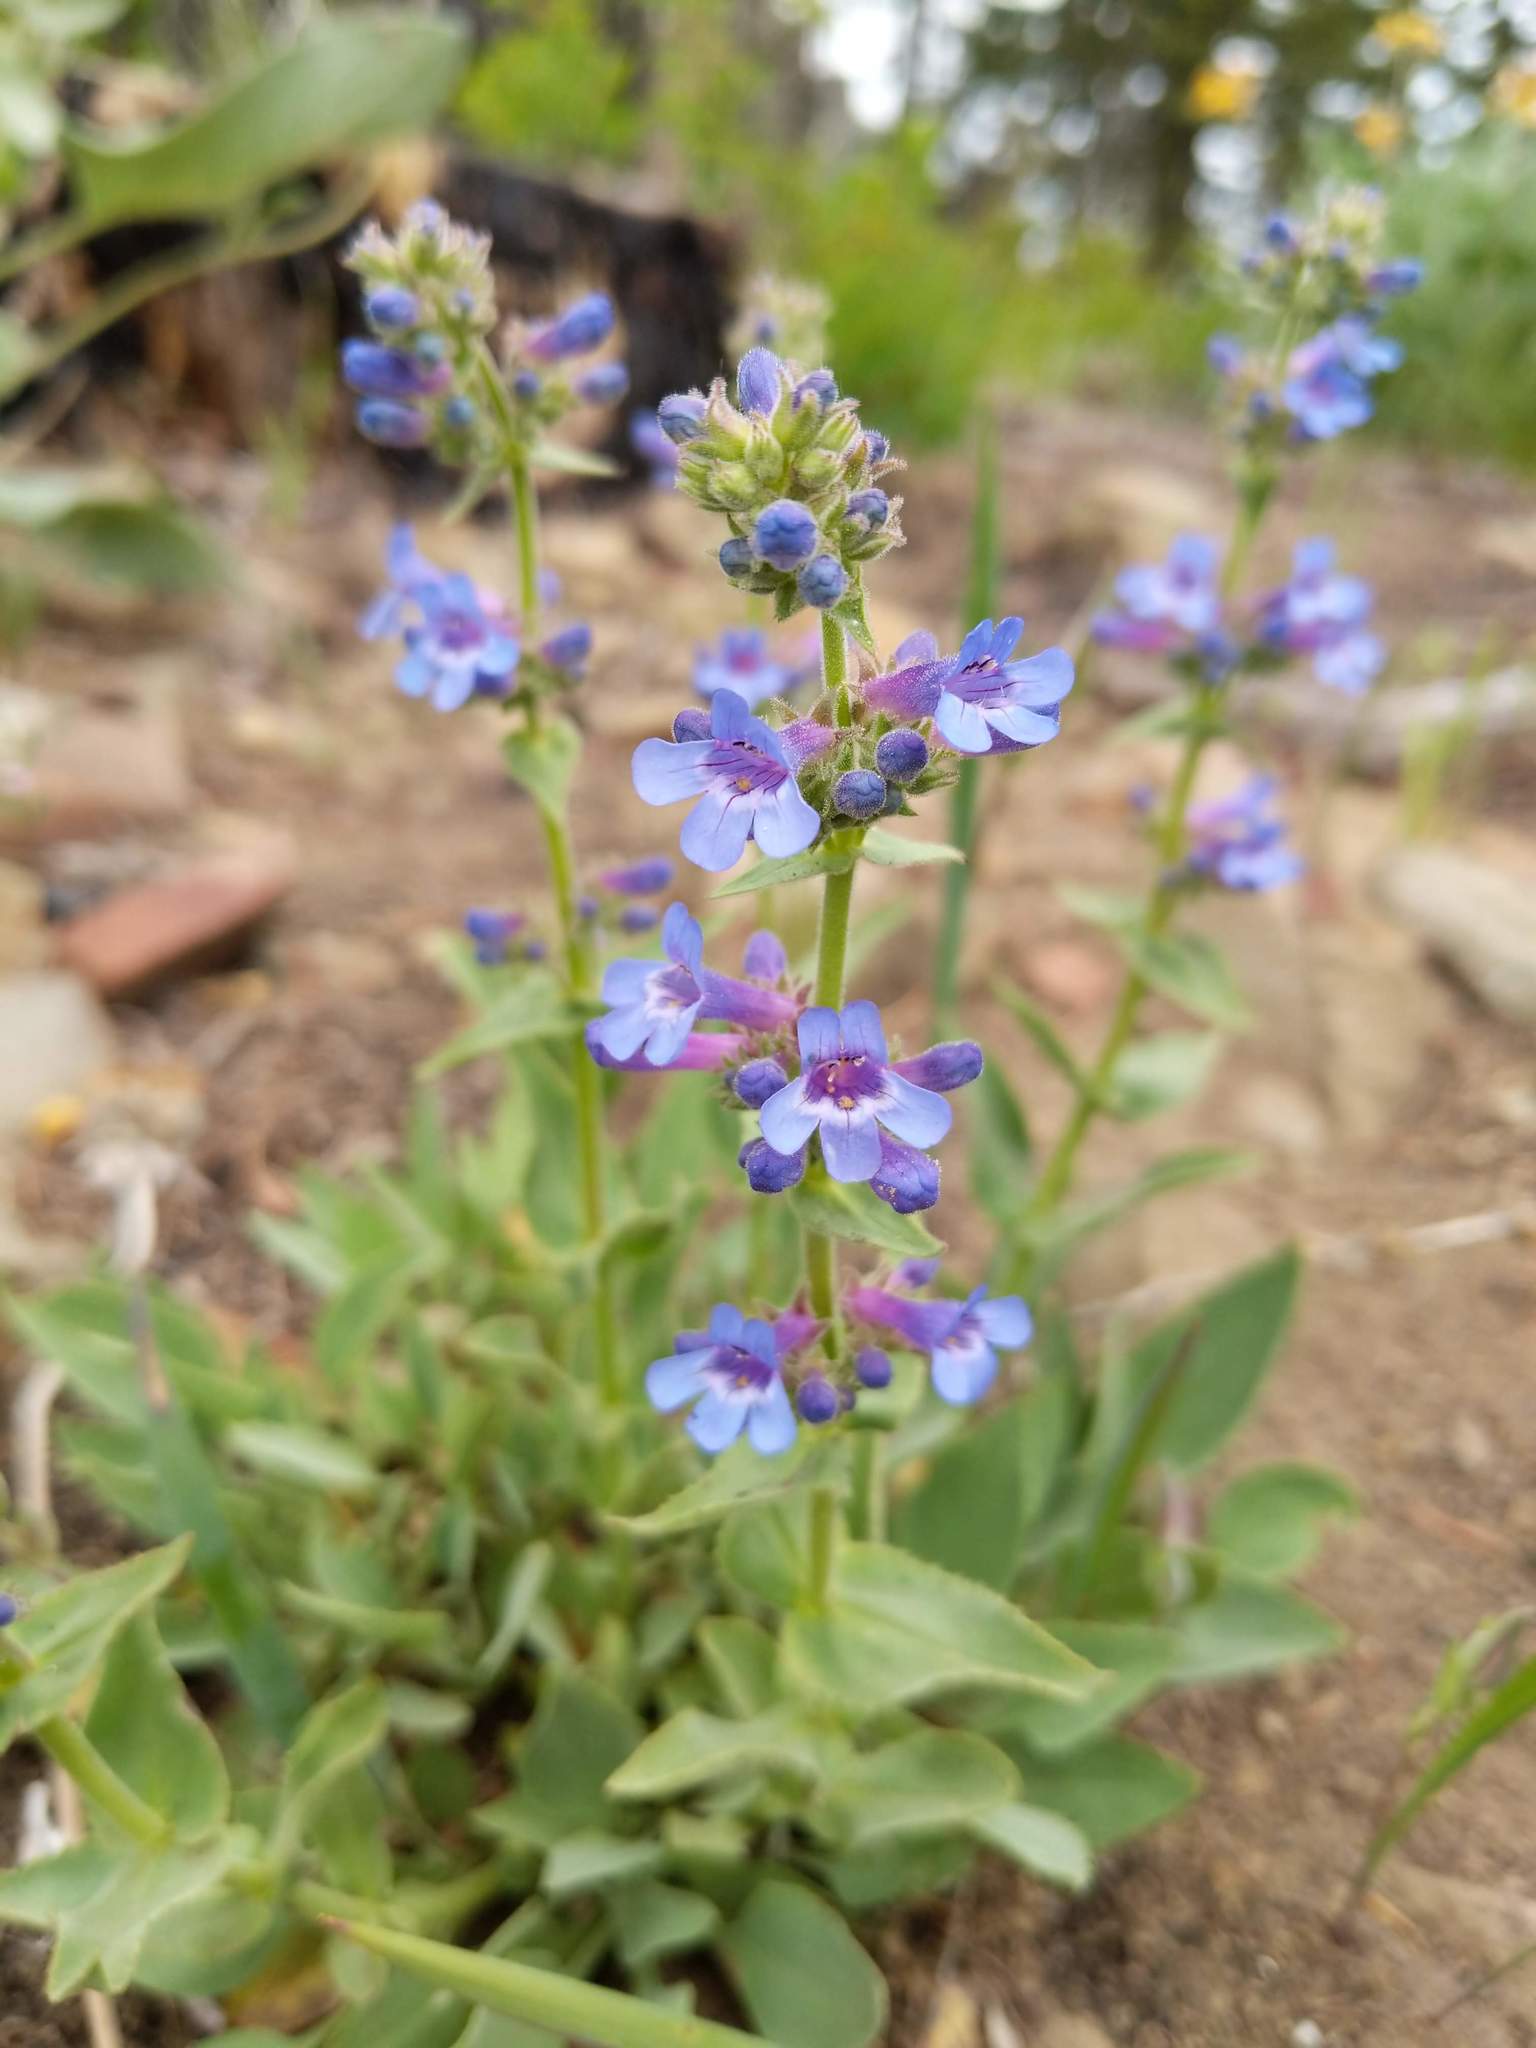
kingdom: Plantae
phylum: Tracheophyta
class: Magnoliopsida
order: Lamiales
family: Plantaginaceae
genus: Penstemon
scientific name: Penstemon pruinosus
